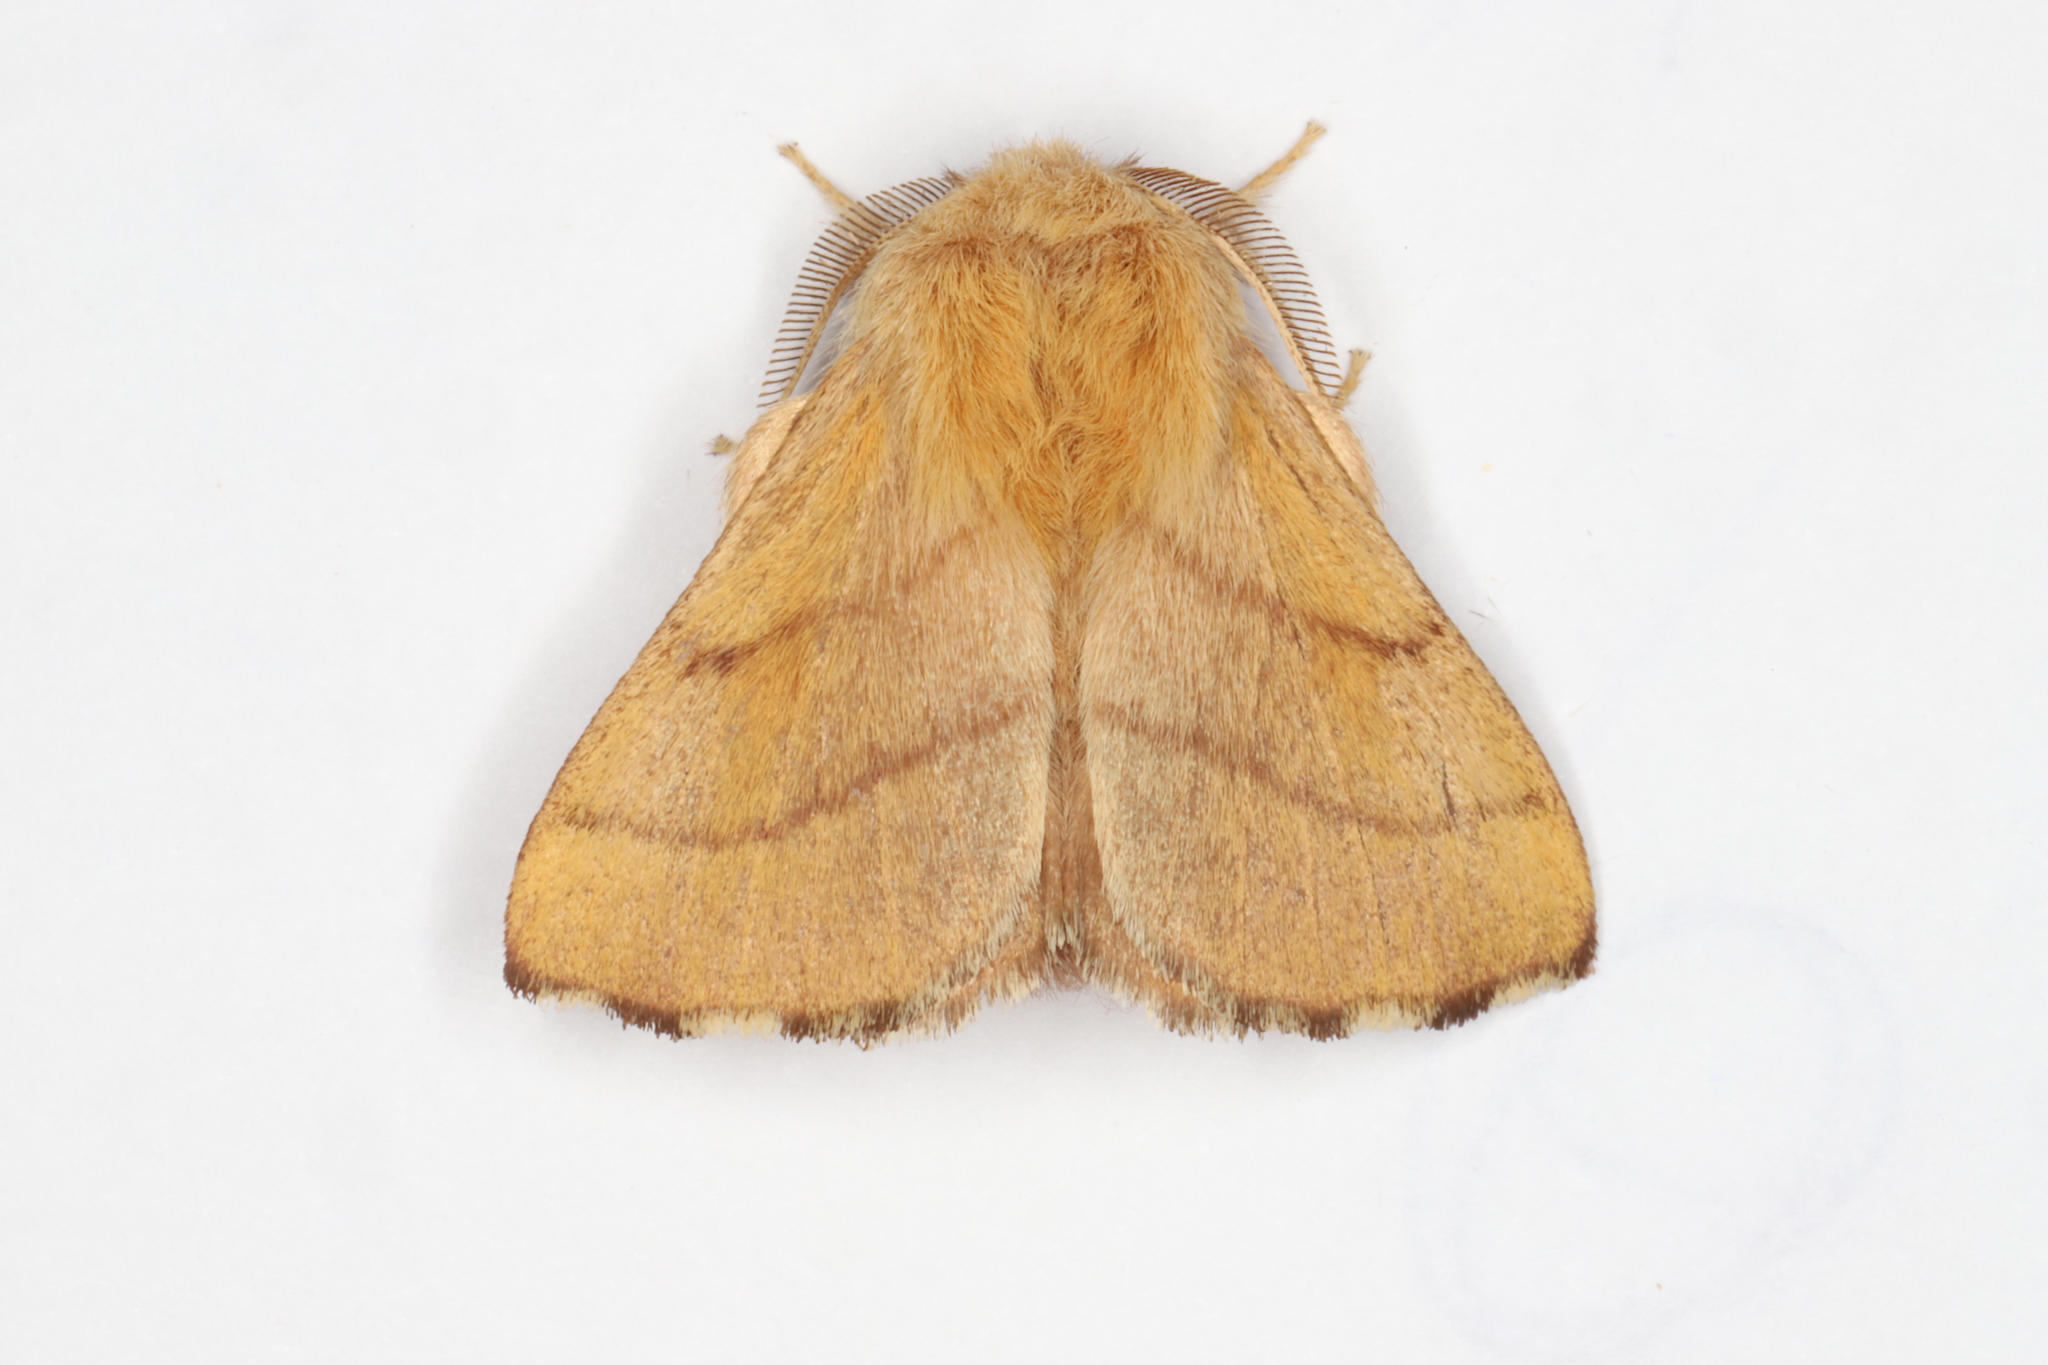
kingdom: Animalia
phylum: Arthropoda
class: Insecta
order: Lepidoptera
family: Lasiocampidae
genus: Malacosoma
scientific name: Malacosoma disstria
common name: Forest tent caterpillar
